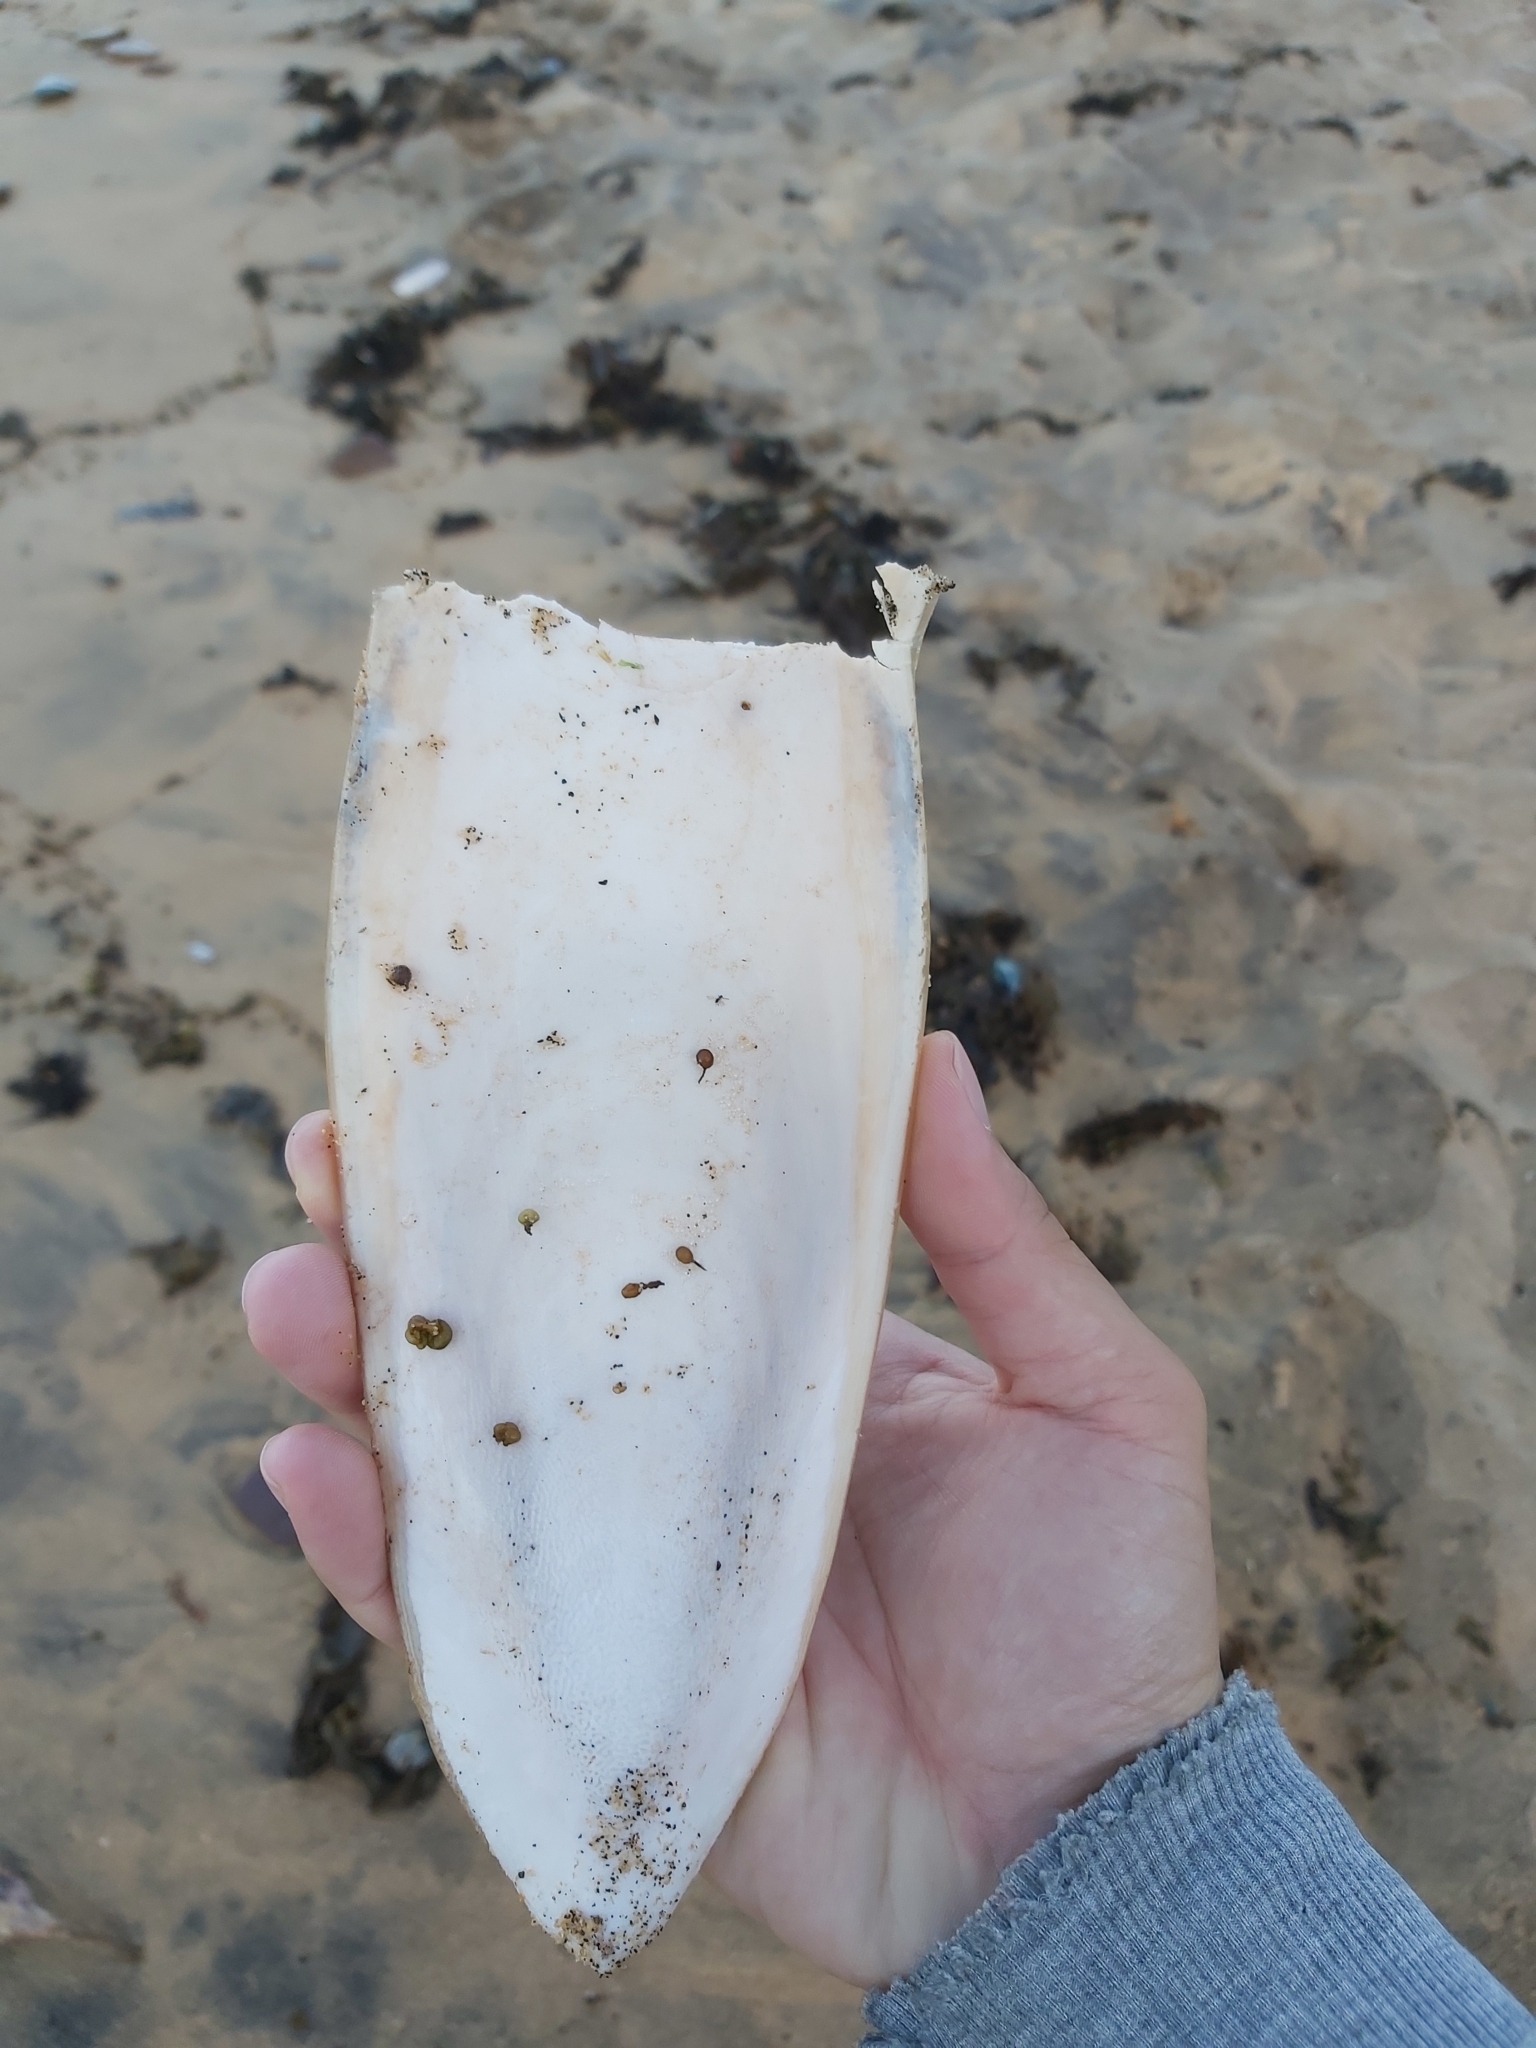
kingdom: Animalia
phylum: Mollusca
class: Cephalopoda
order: Sepiida
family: Sepiidae
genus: Ascarosepion
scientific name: Ascarosepion apama
